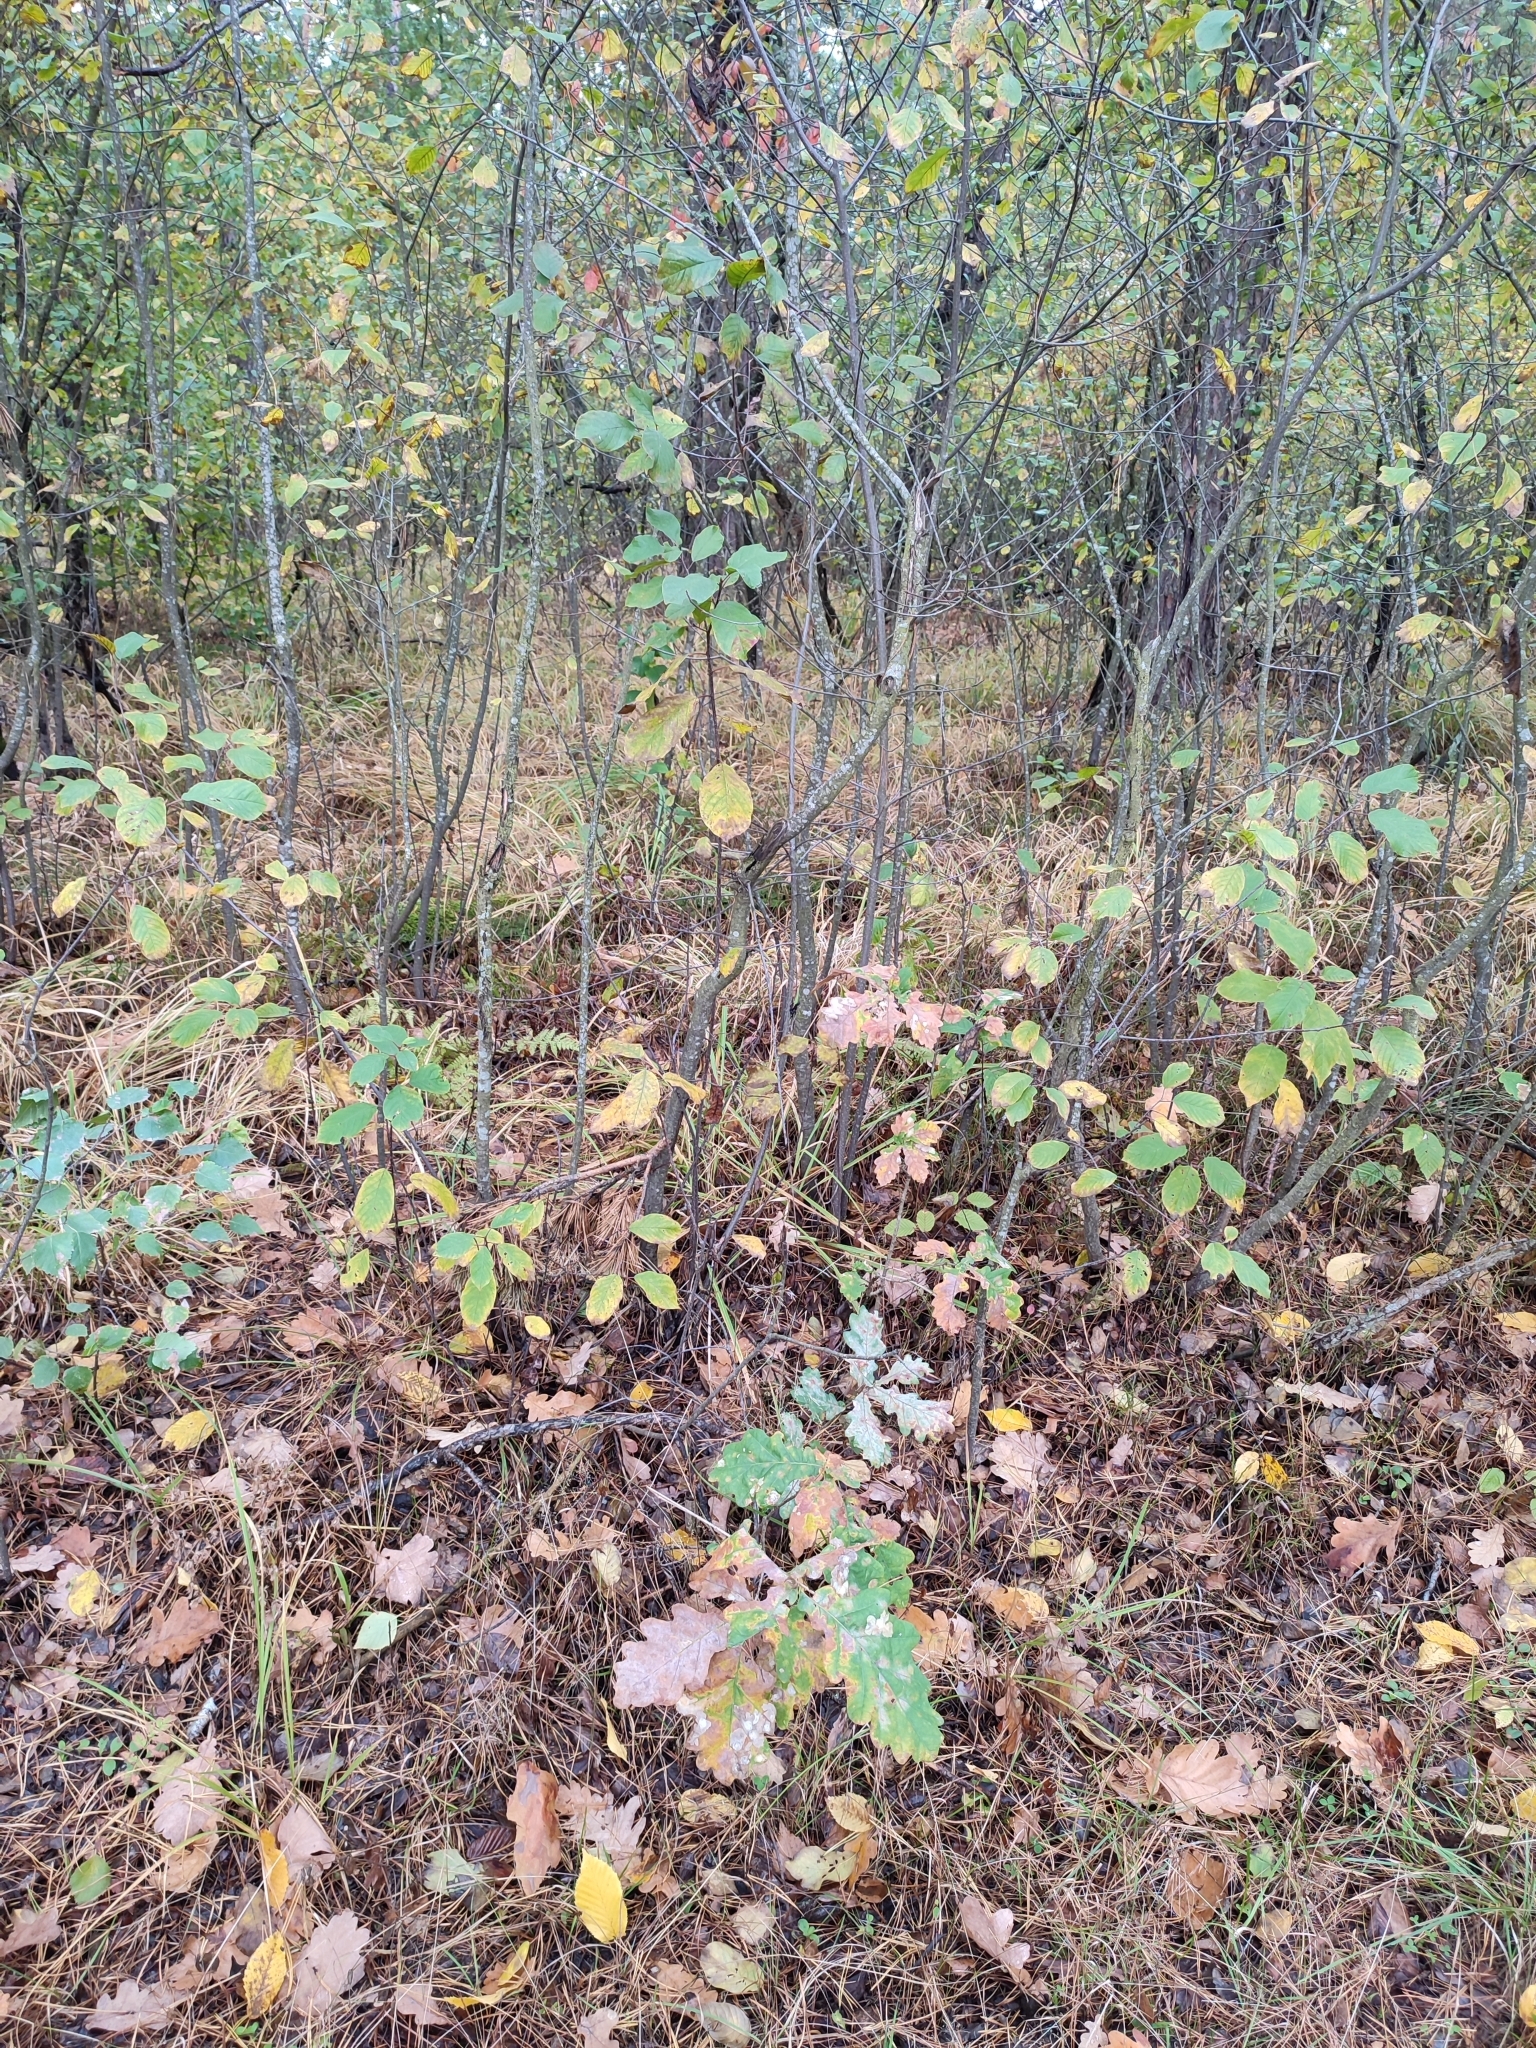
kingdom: Plantae
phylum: Tracheophyta
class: Magnoliopsida
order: Fagales
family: Fagaceae
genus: Quercus
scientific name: Quercus robur
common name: Pedunculate oak
